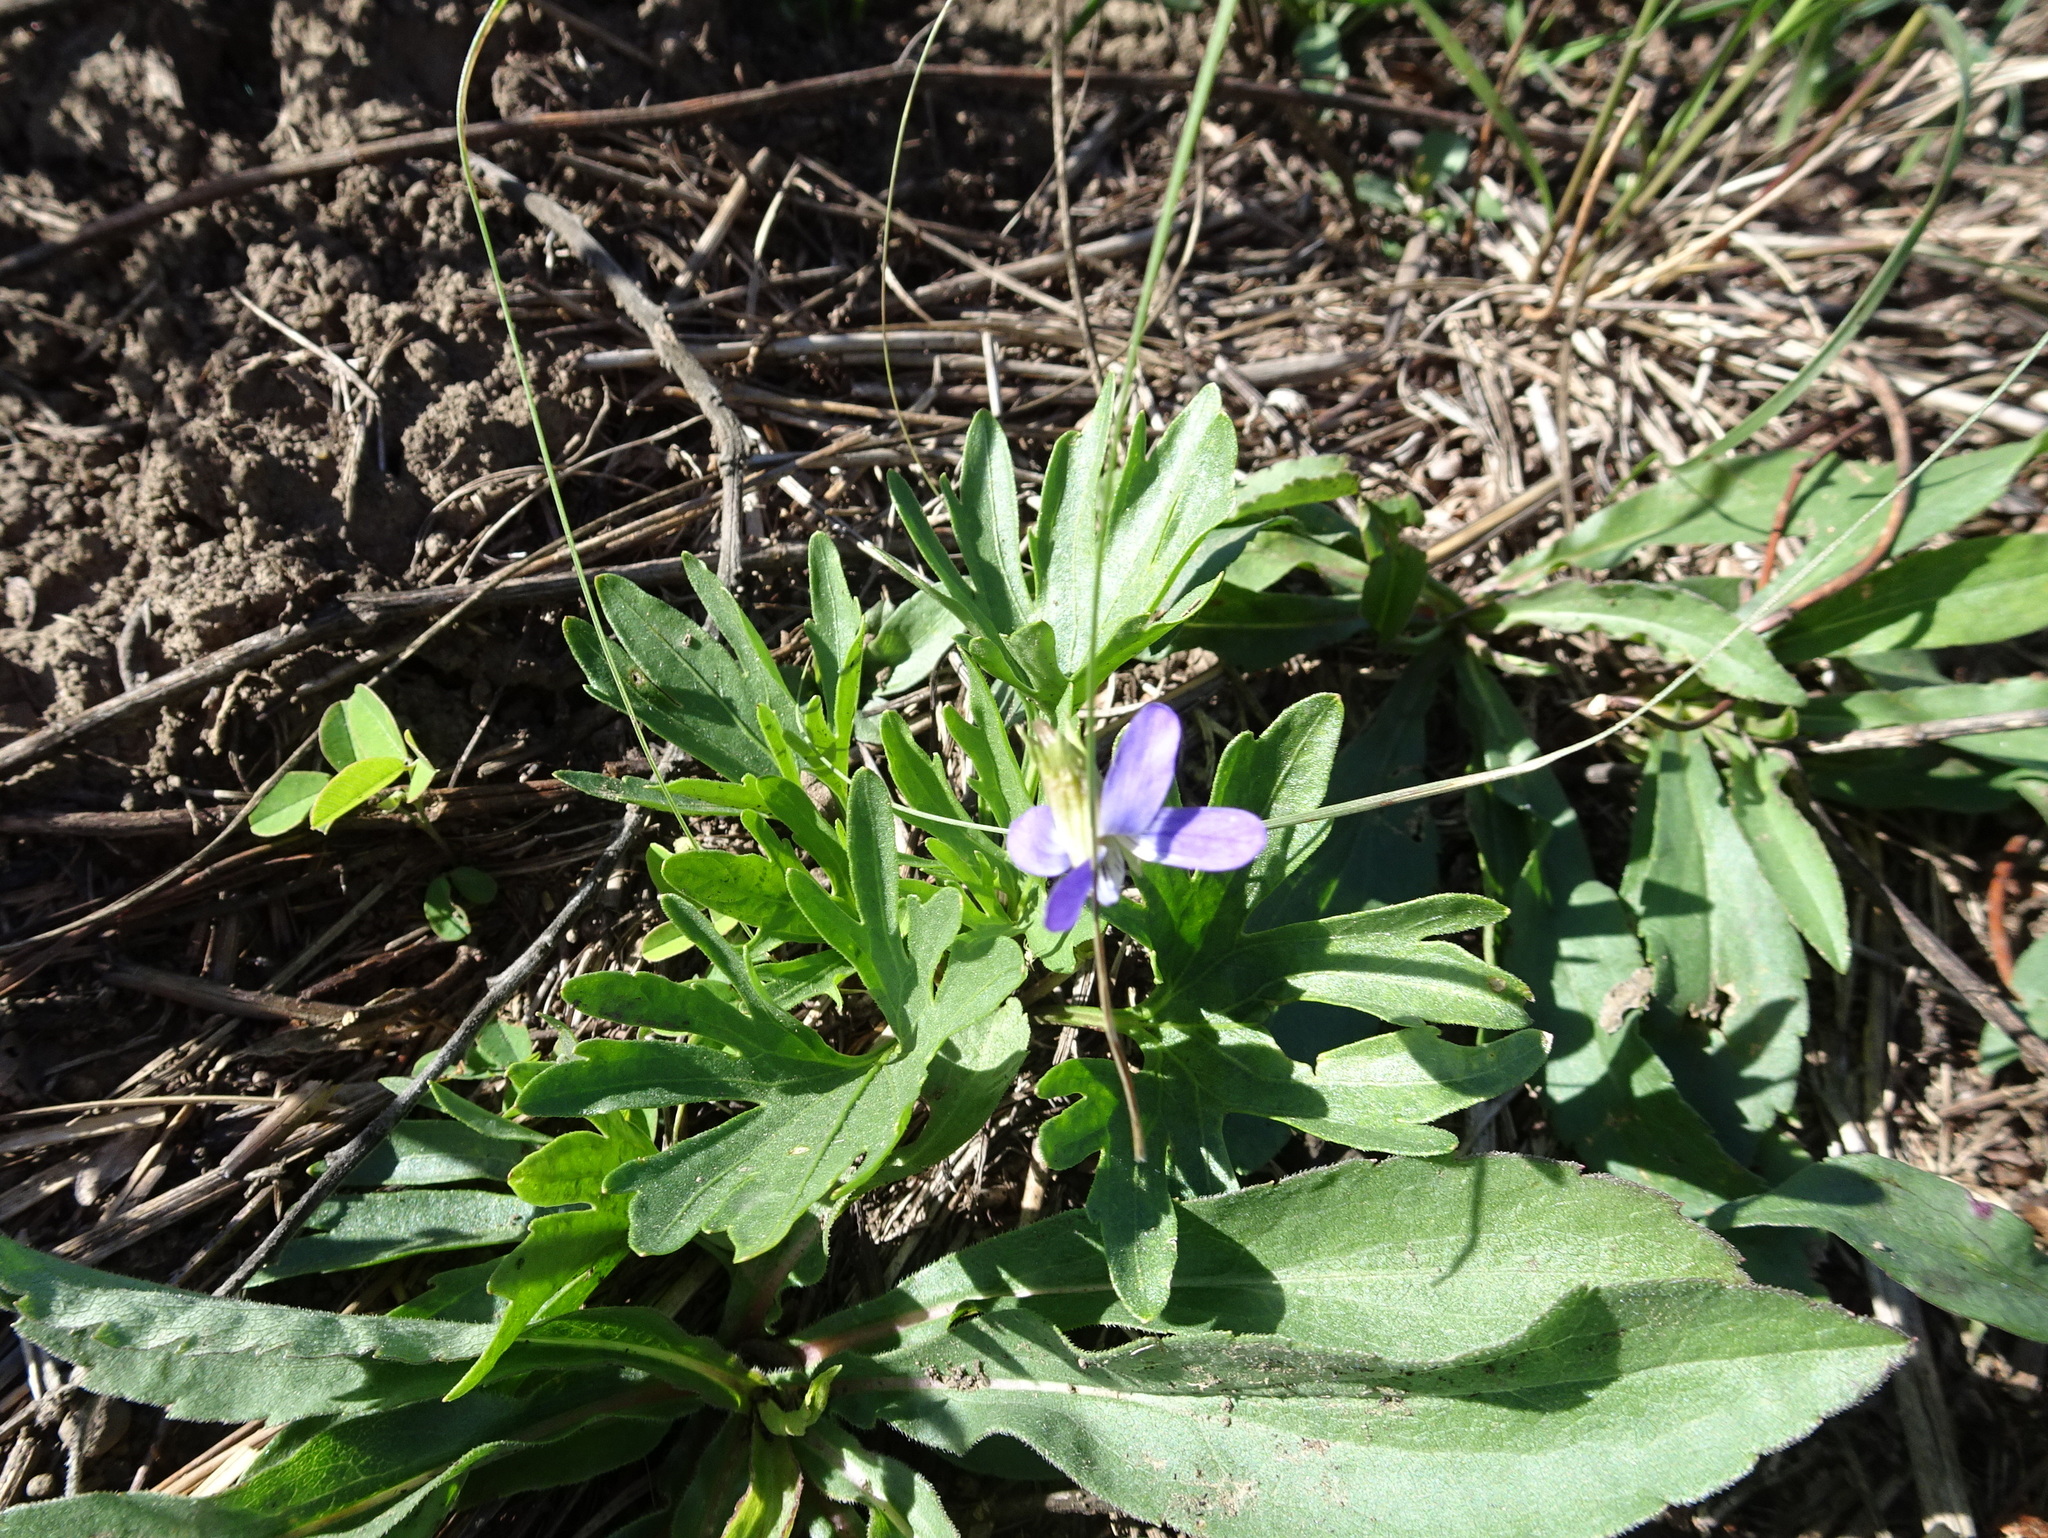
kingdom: Plantae
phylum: Tracheophyta
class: Magnoliopsida
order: Malpighiales
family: Violaceae
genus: Viola
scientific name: Viola pedatifida
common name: Prairie violet
